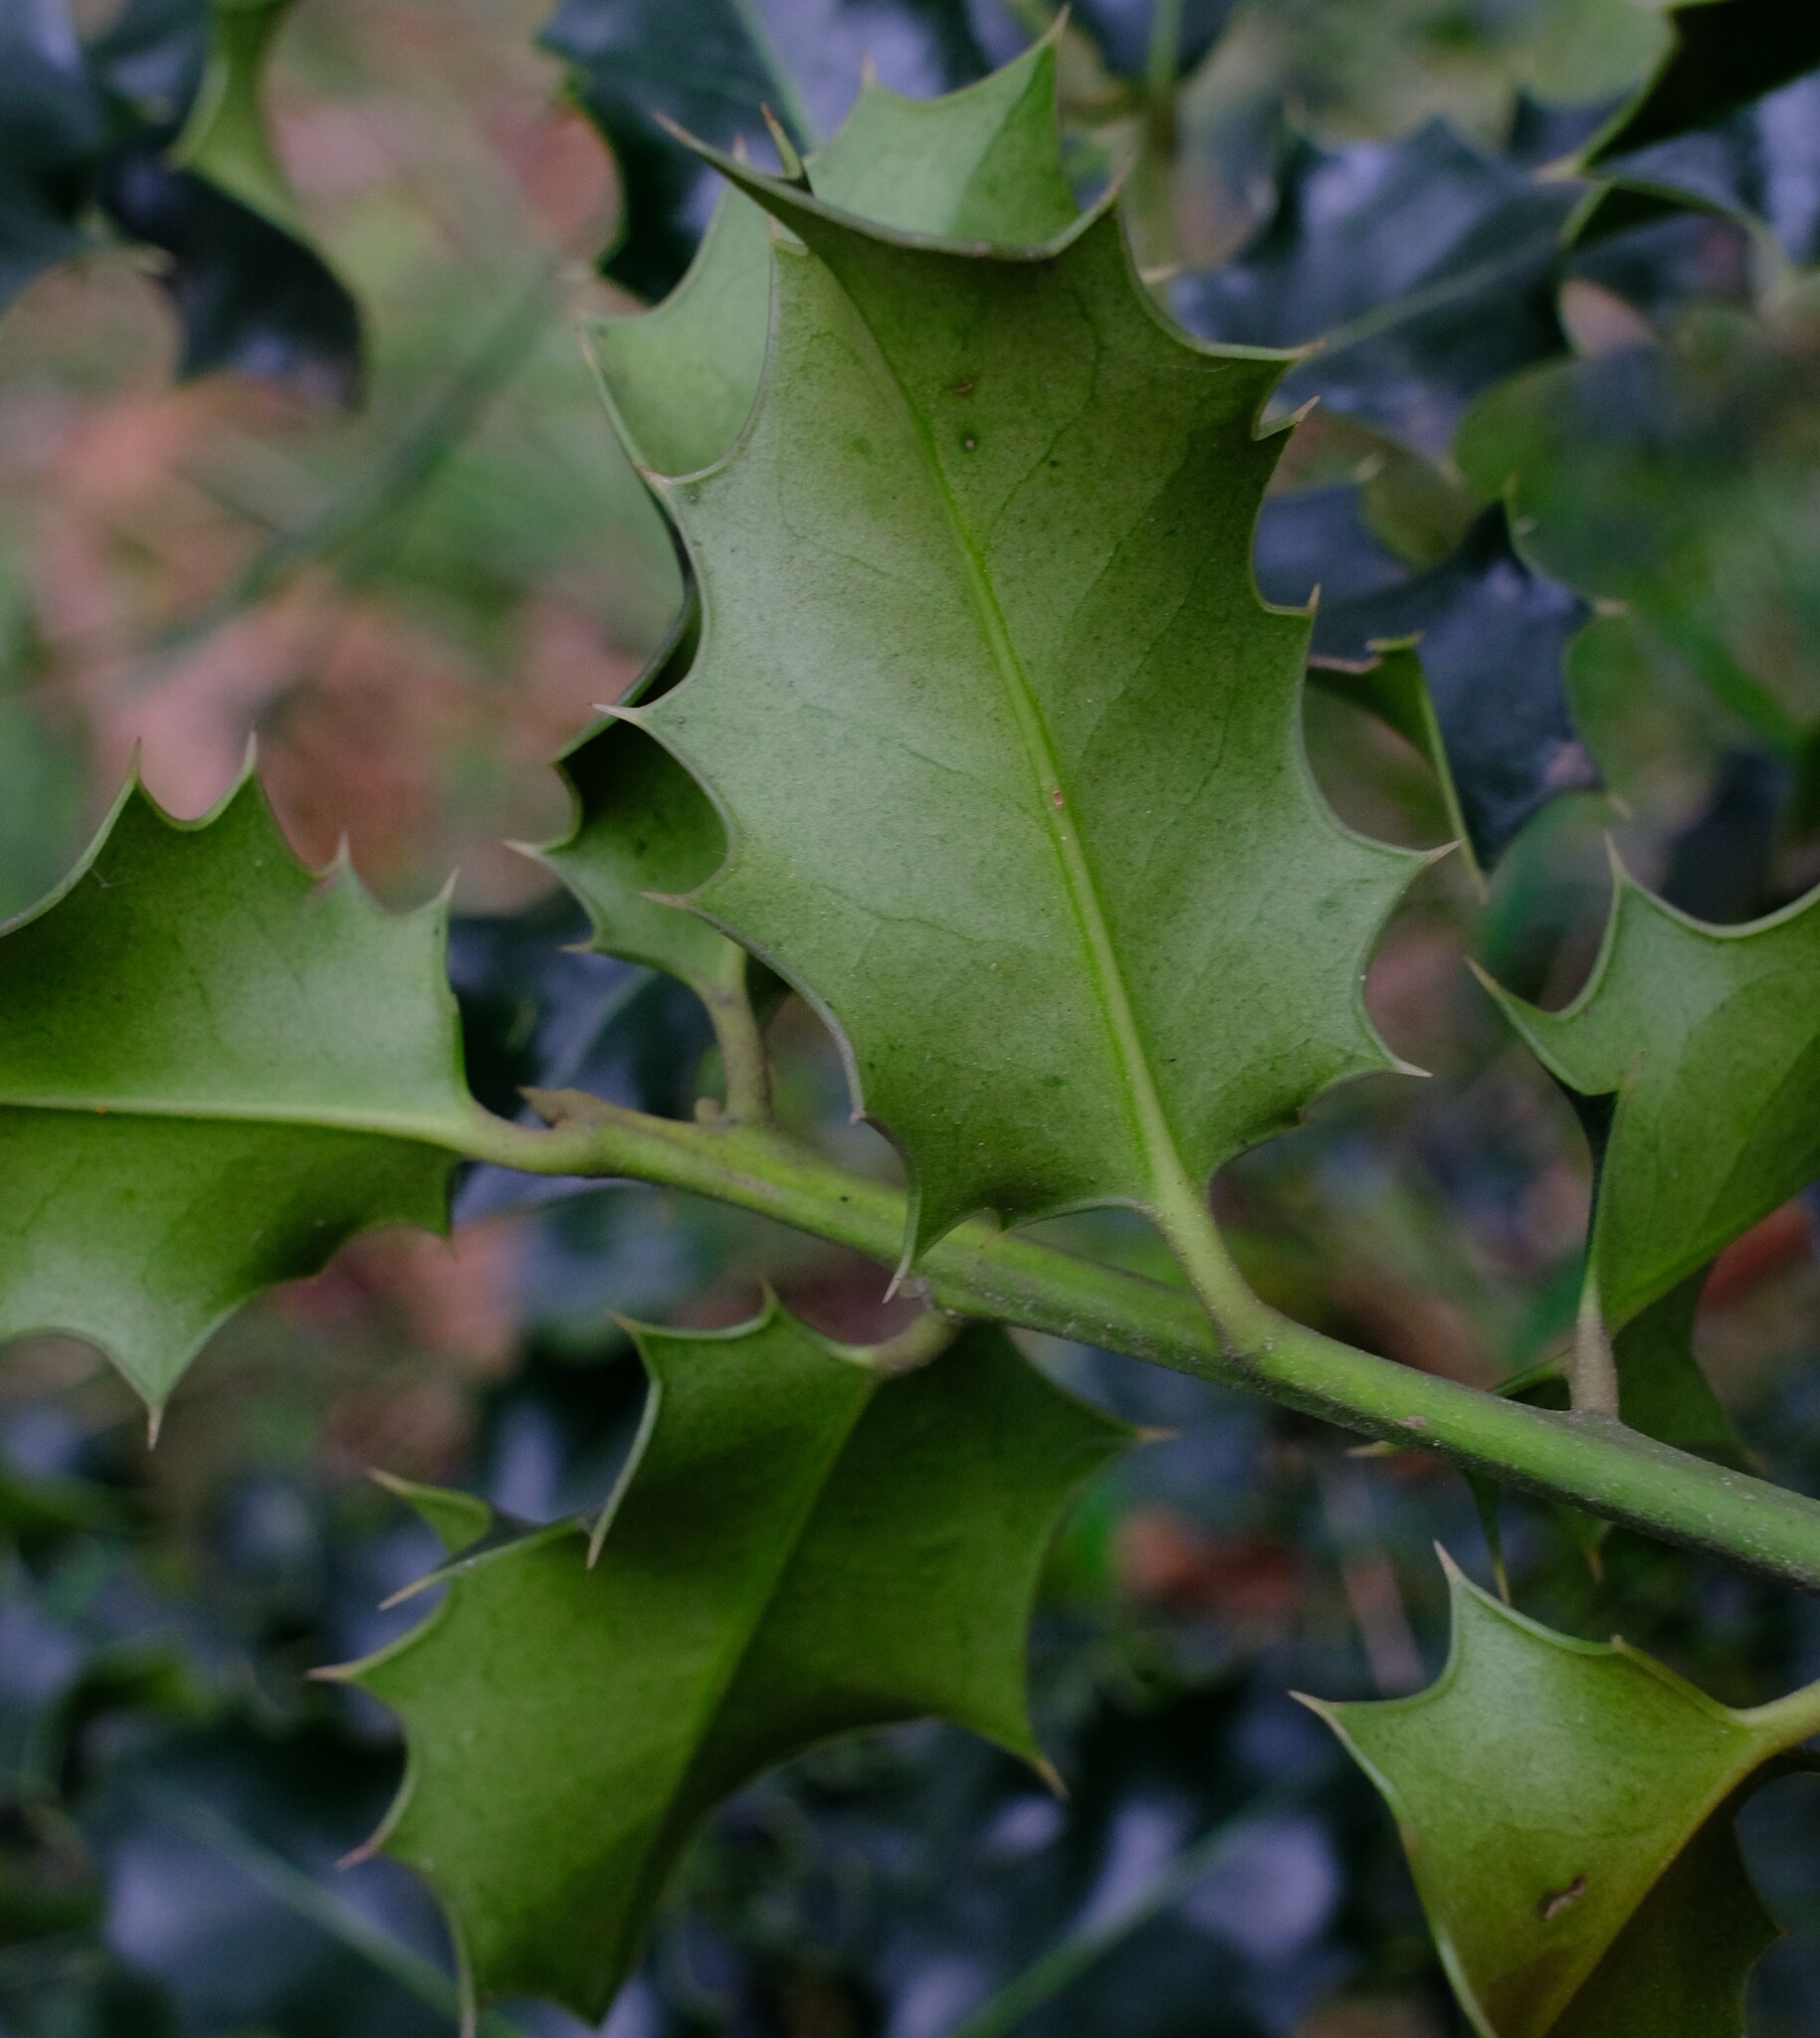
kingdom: Plantae
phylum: Tracheophyta
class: Magnoliopsida
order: Aquifoliales
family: Aquifoliaceae
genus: Ilex
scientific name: Ilex aquifolium
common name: English holly
